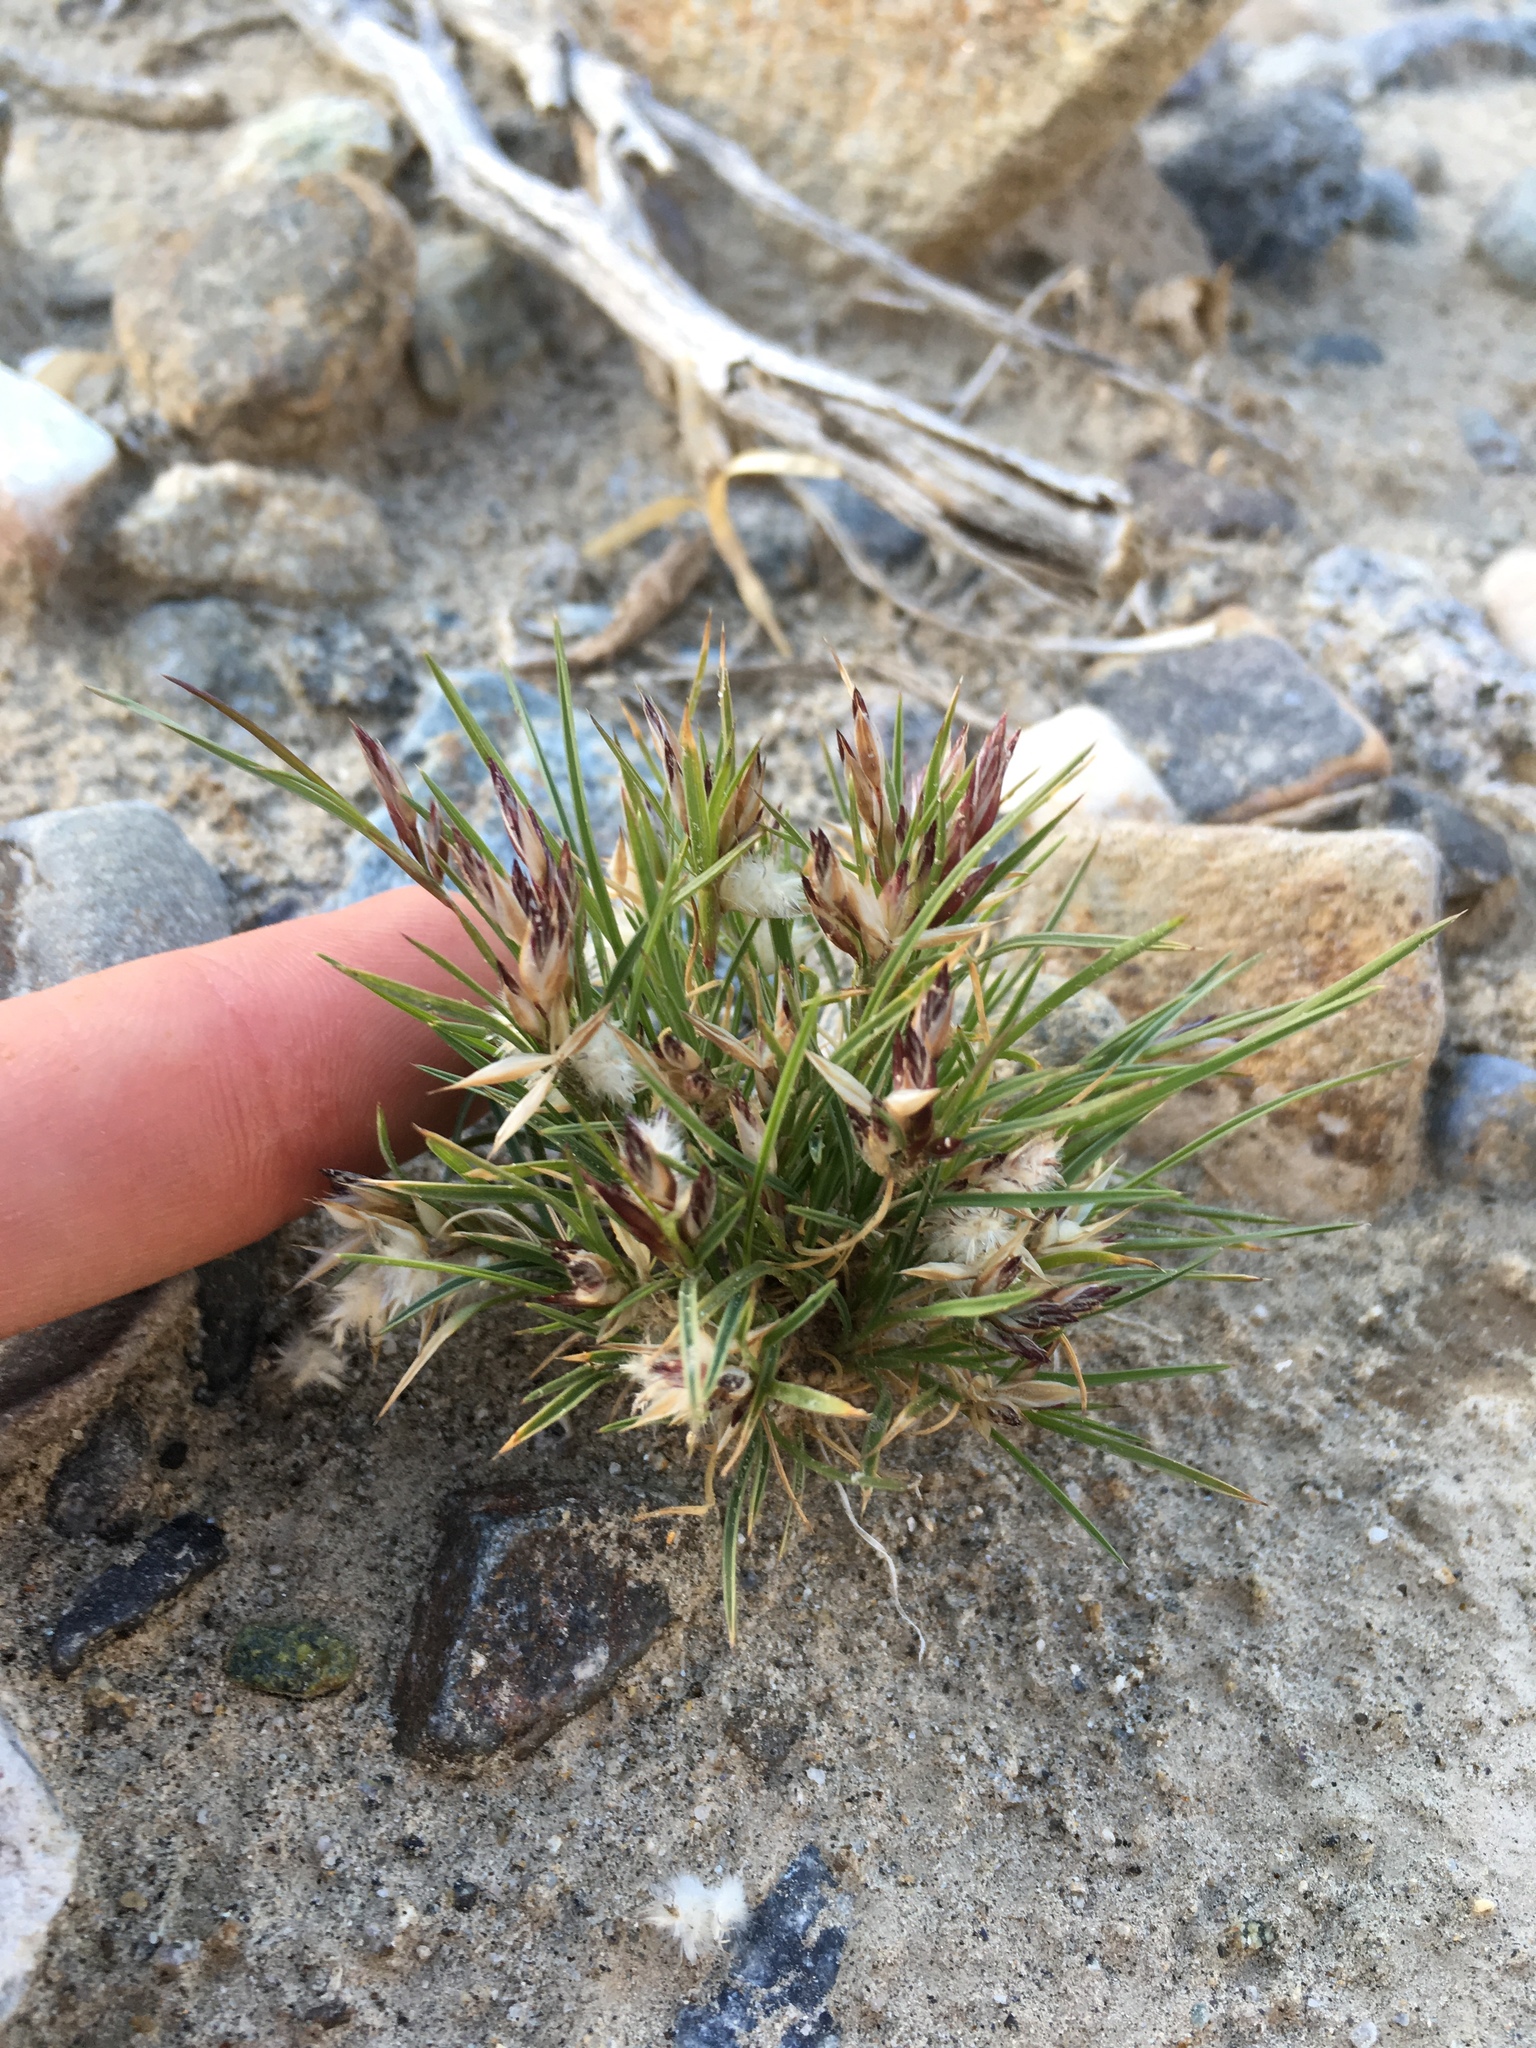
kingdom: Plantae
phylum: Tracheophyta
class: Liliopsida
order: Poales
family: Poaceae
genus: Dasyochloa
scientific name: Dasyochloa pulchella
